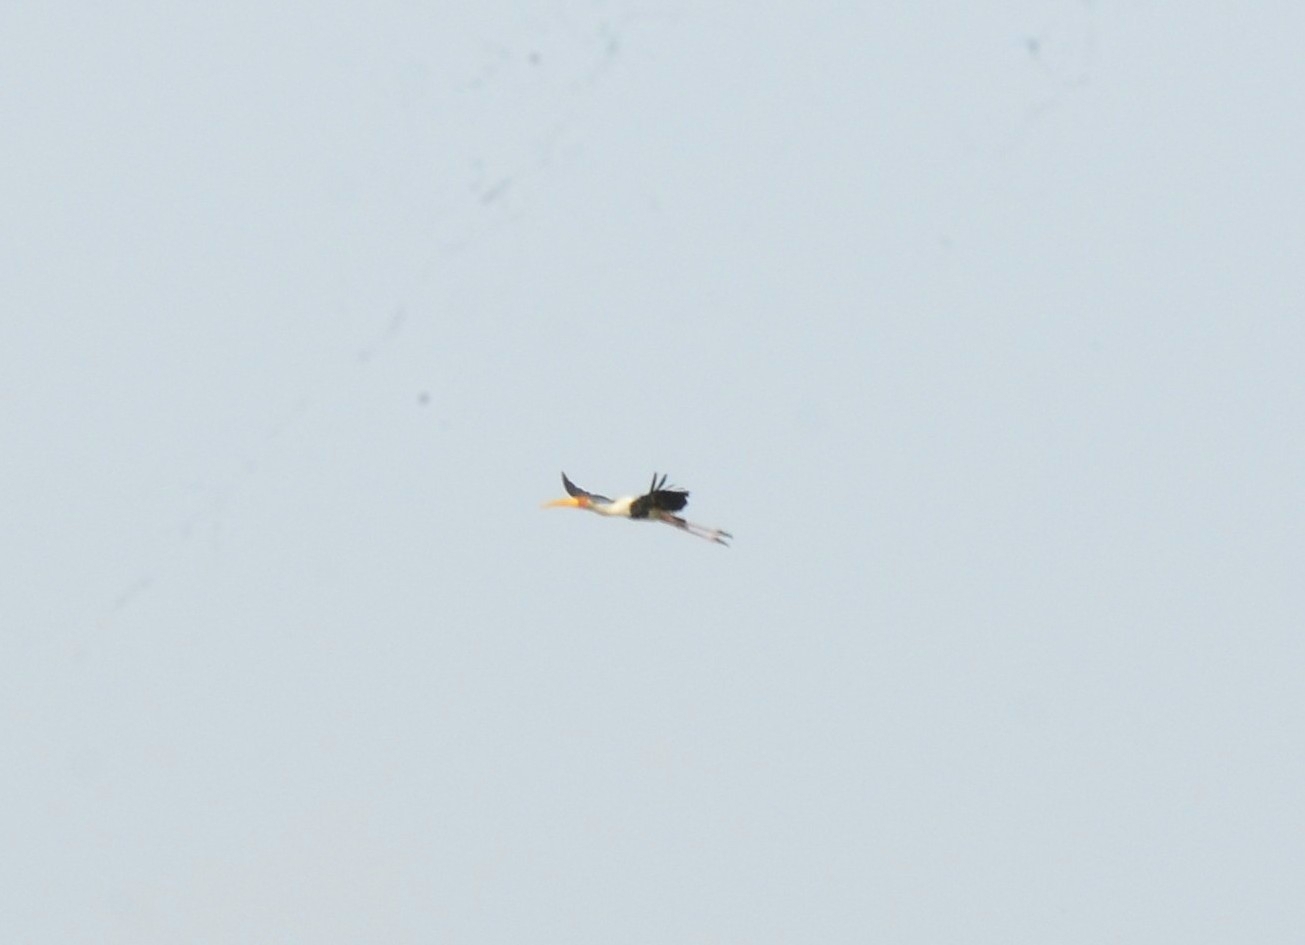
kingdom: Animalia
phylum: Chordata
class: Aves
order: Ciconiiformes
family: Ciconiidae
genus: Mycteria
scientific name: Mycteria leucocephala
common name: Painted stork
